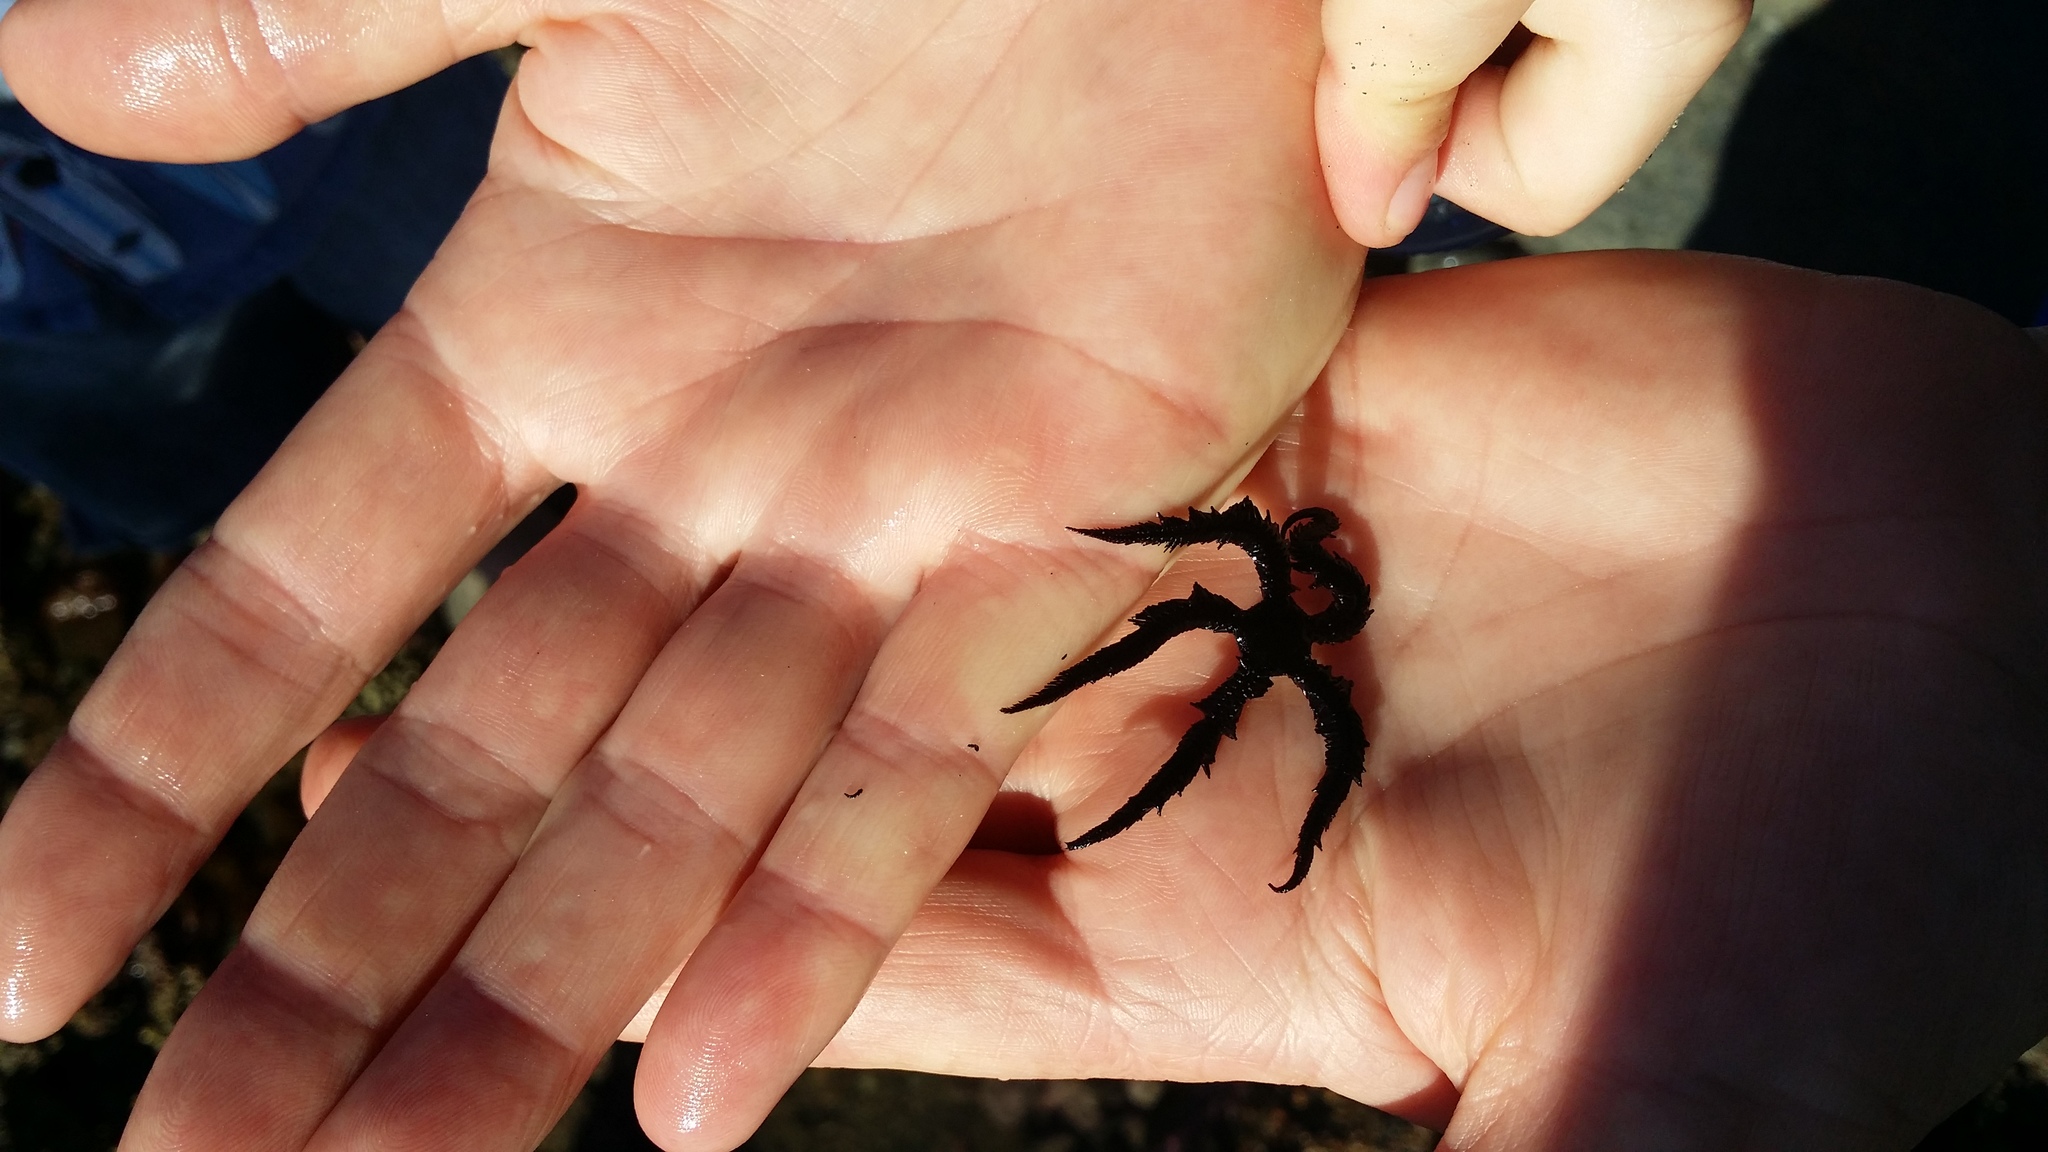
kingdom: Animalia
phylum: Echinodermata
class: Ophiuroidea
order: Ophiacanthida
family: Ophiopteridae
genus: Ophiopteris
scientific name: Ophiopteris antipodum
